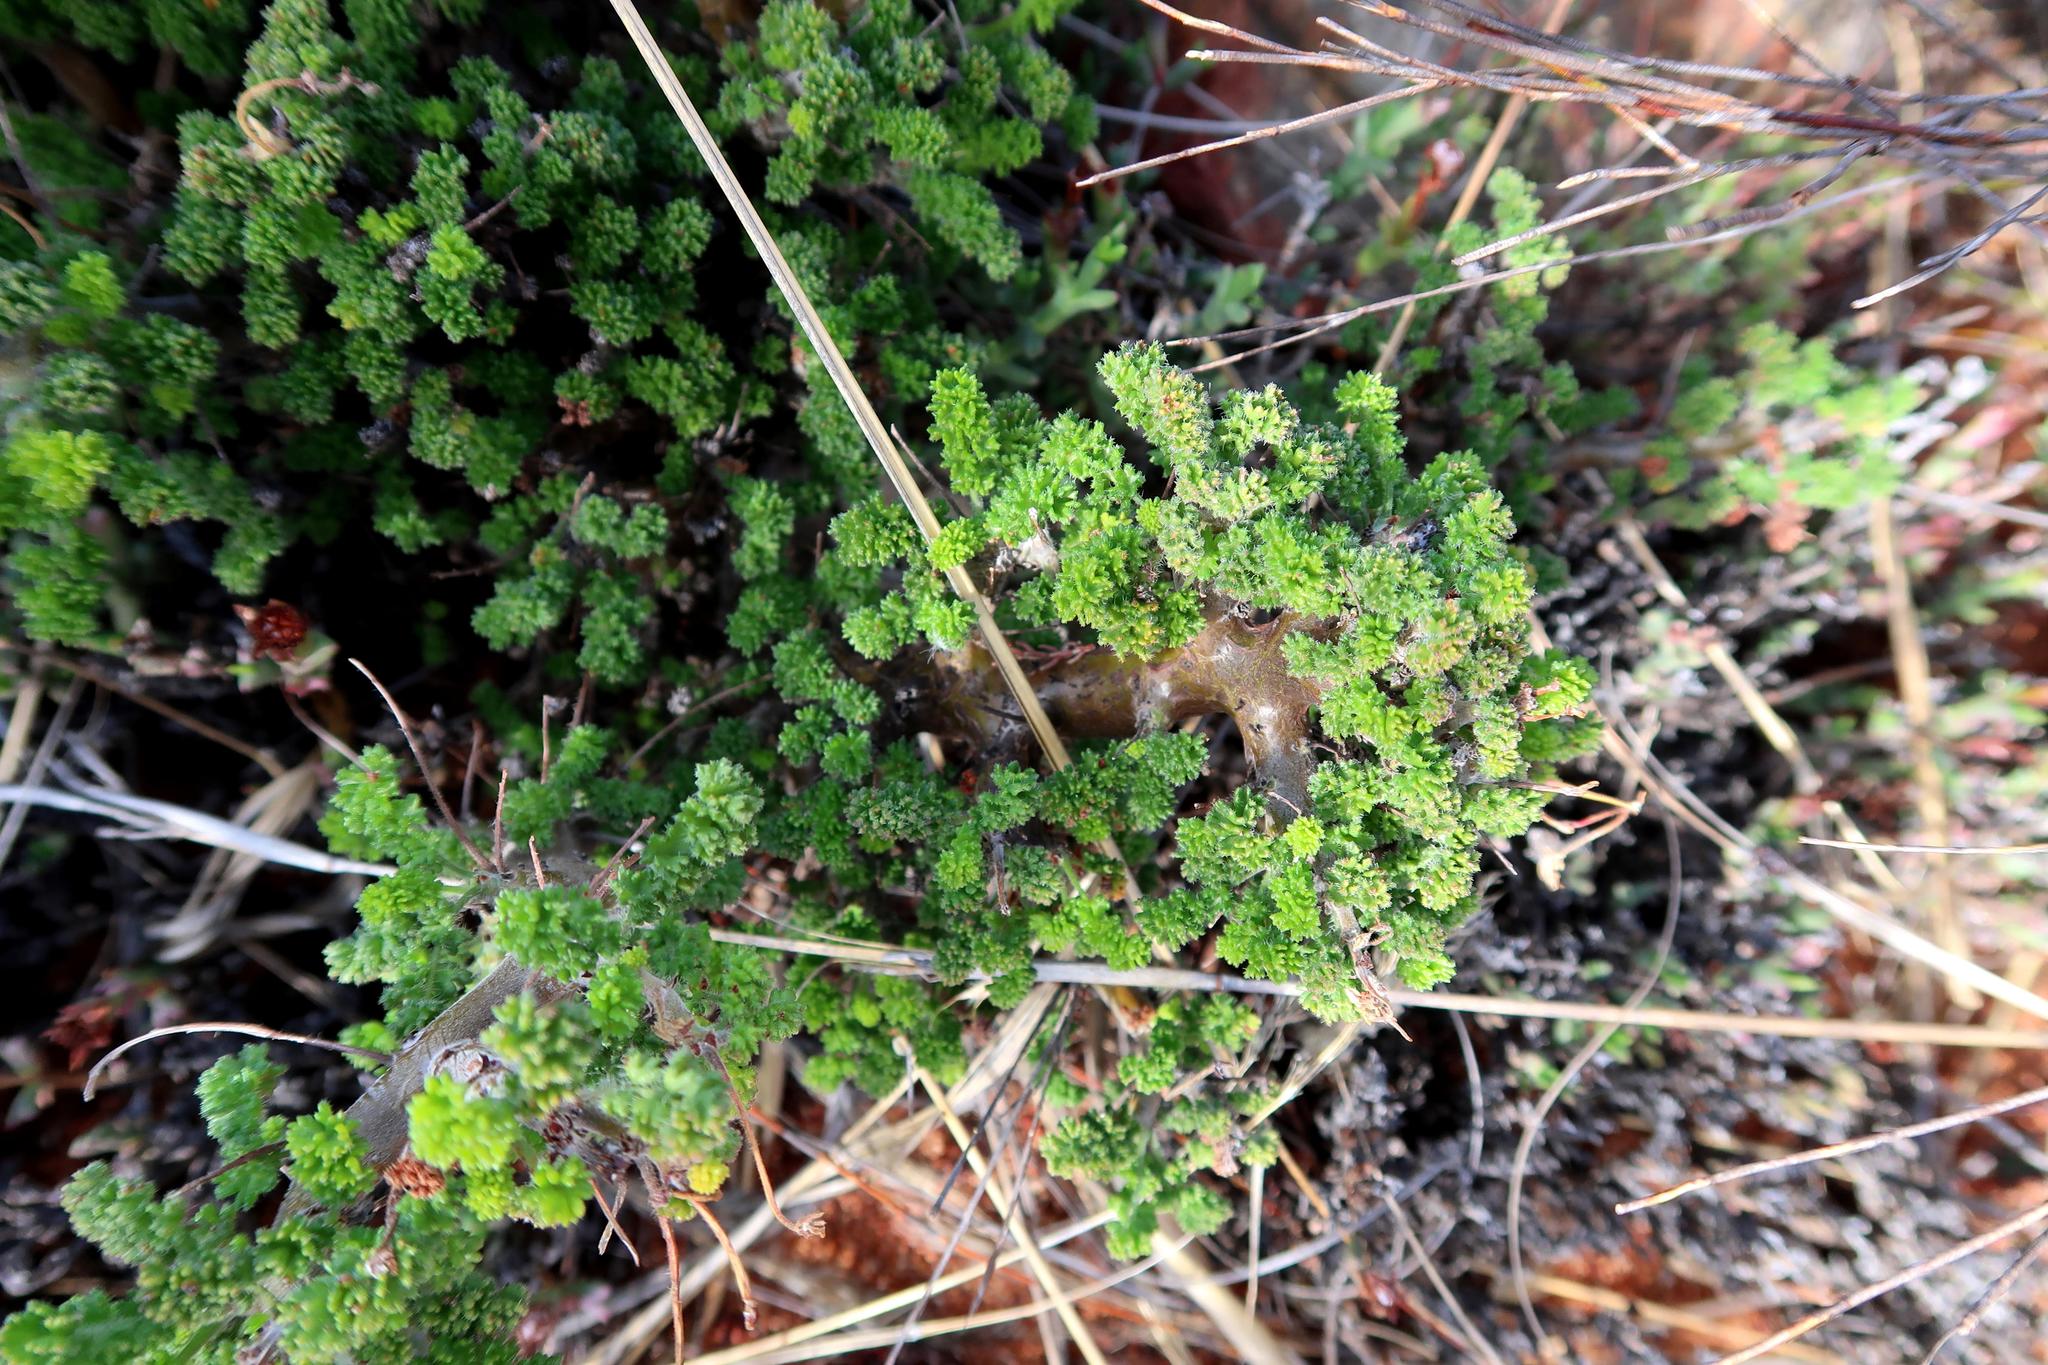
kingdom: Plantae
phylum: Tracheophyta
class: Magnoliopsida
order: Geraniales
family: Geraniaceae
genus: Pelargonium
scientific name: Pelargonium alternans
